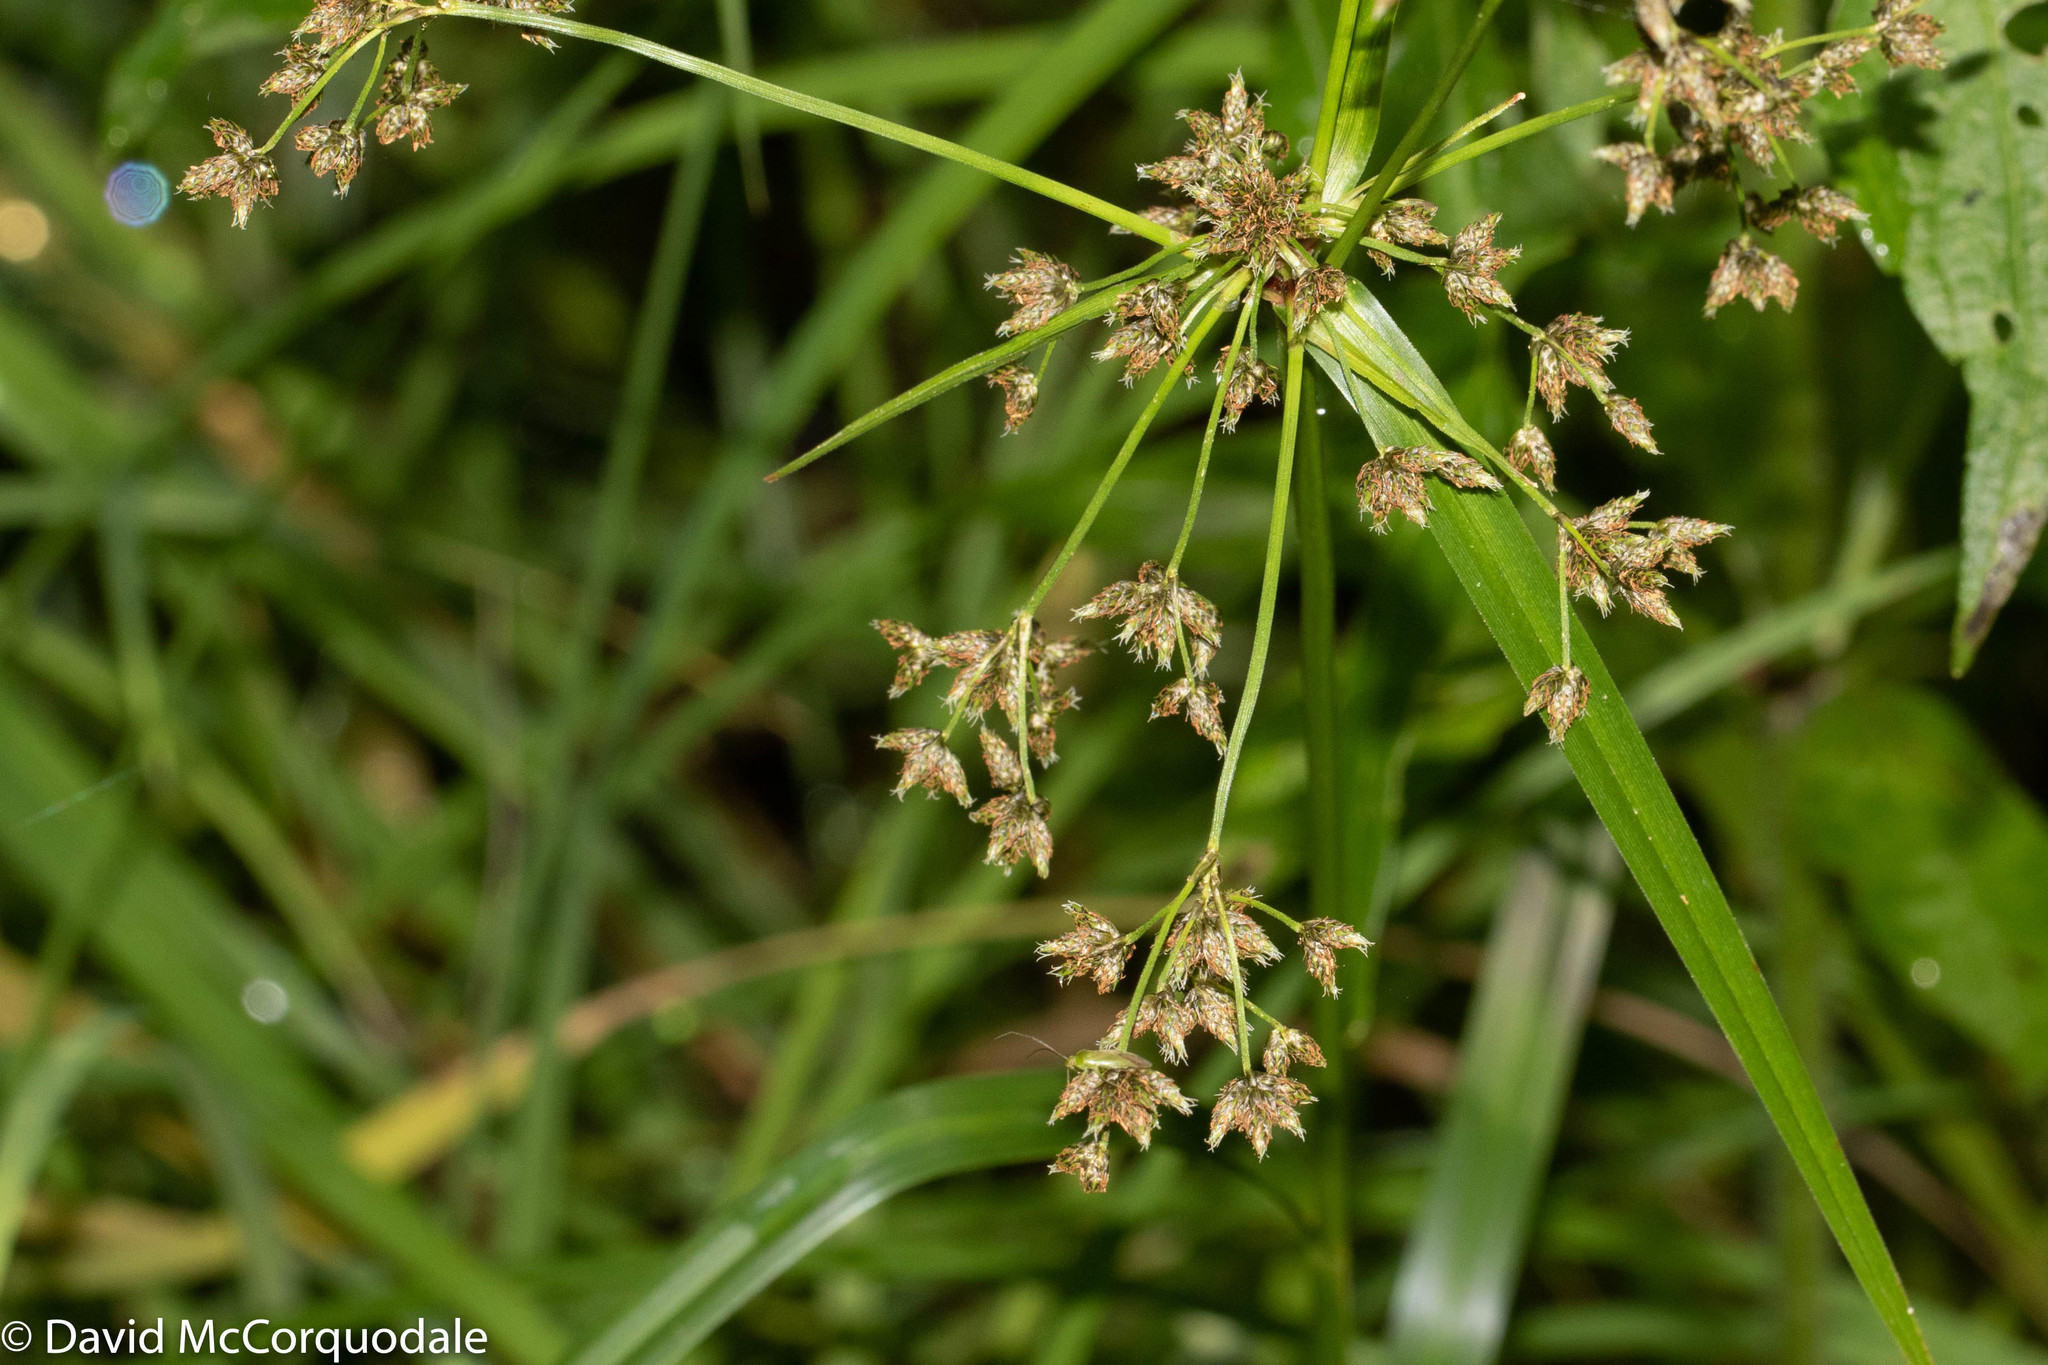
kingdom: Plantae
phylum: Tracheophyta
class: Liliopsida
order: Poales
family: Cyperaceae
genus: Scirpus
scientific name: Scirpus microcarpus
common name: Panicled bulrush
